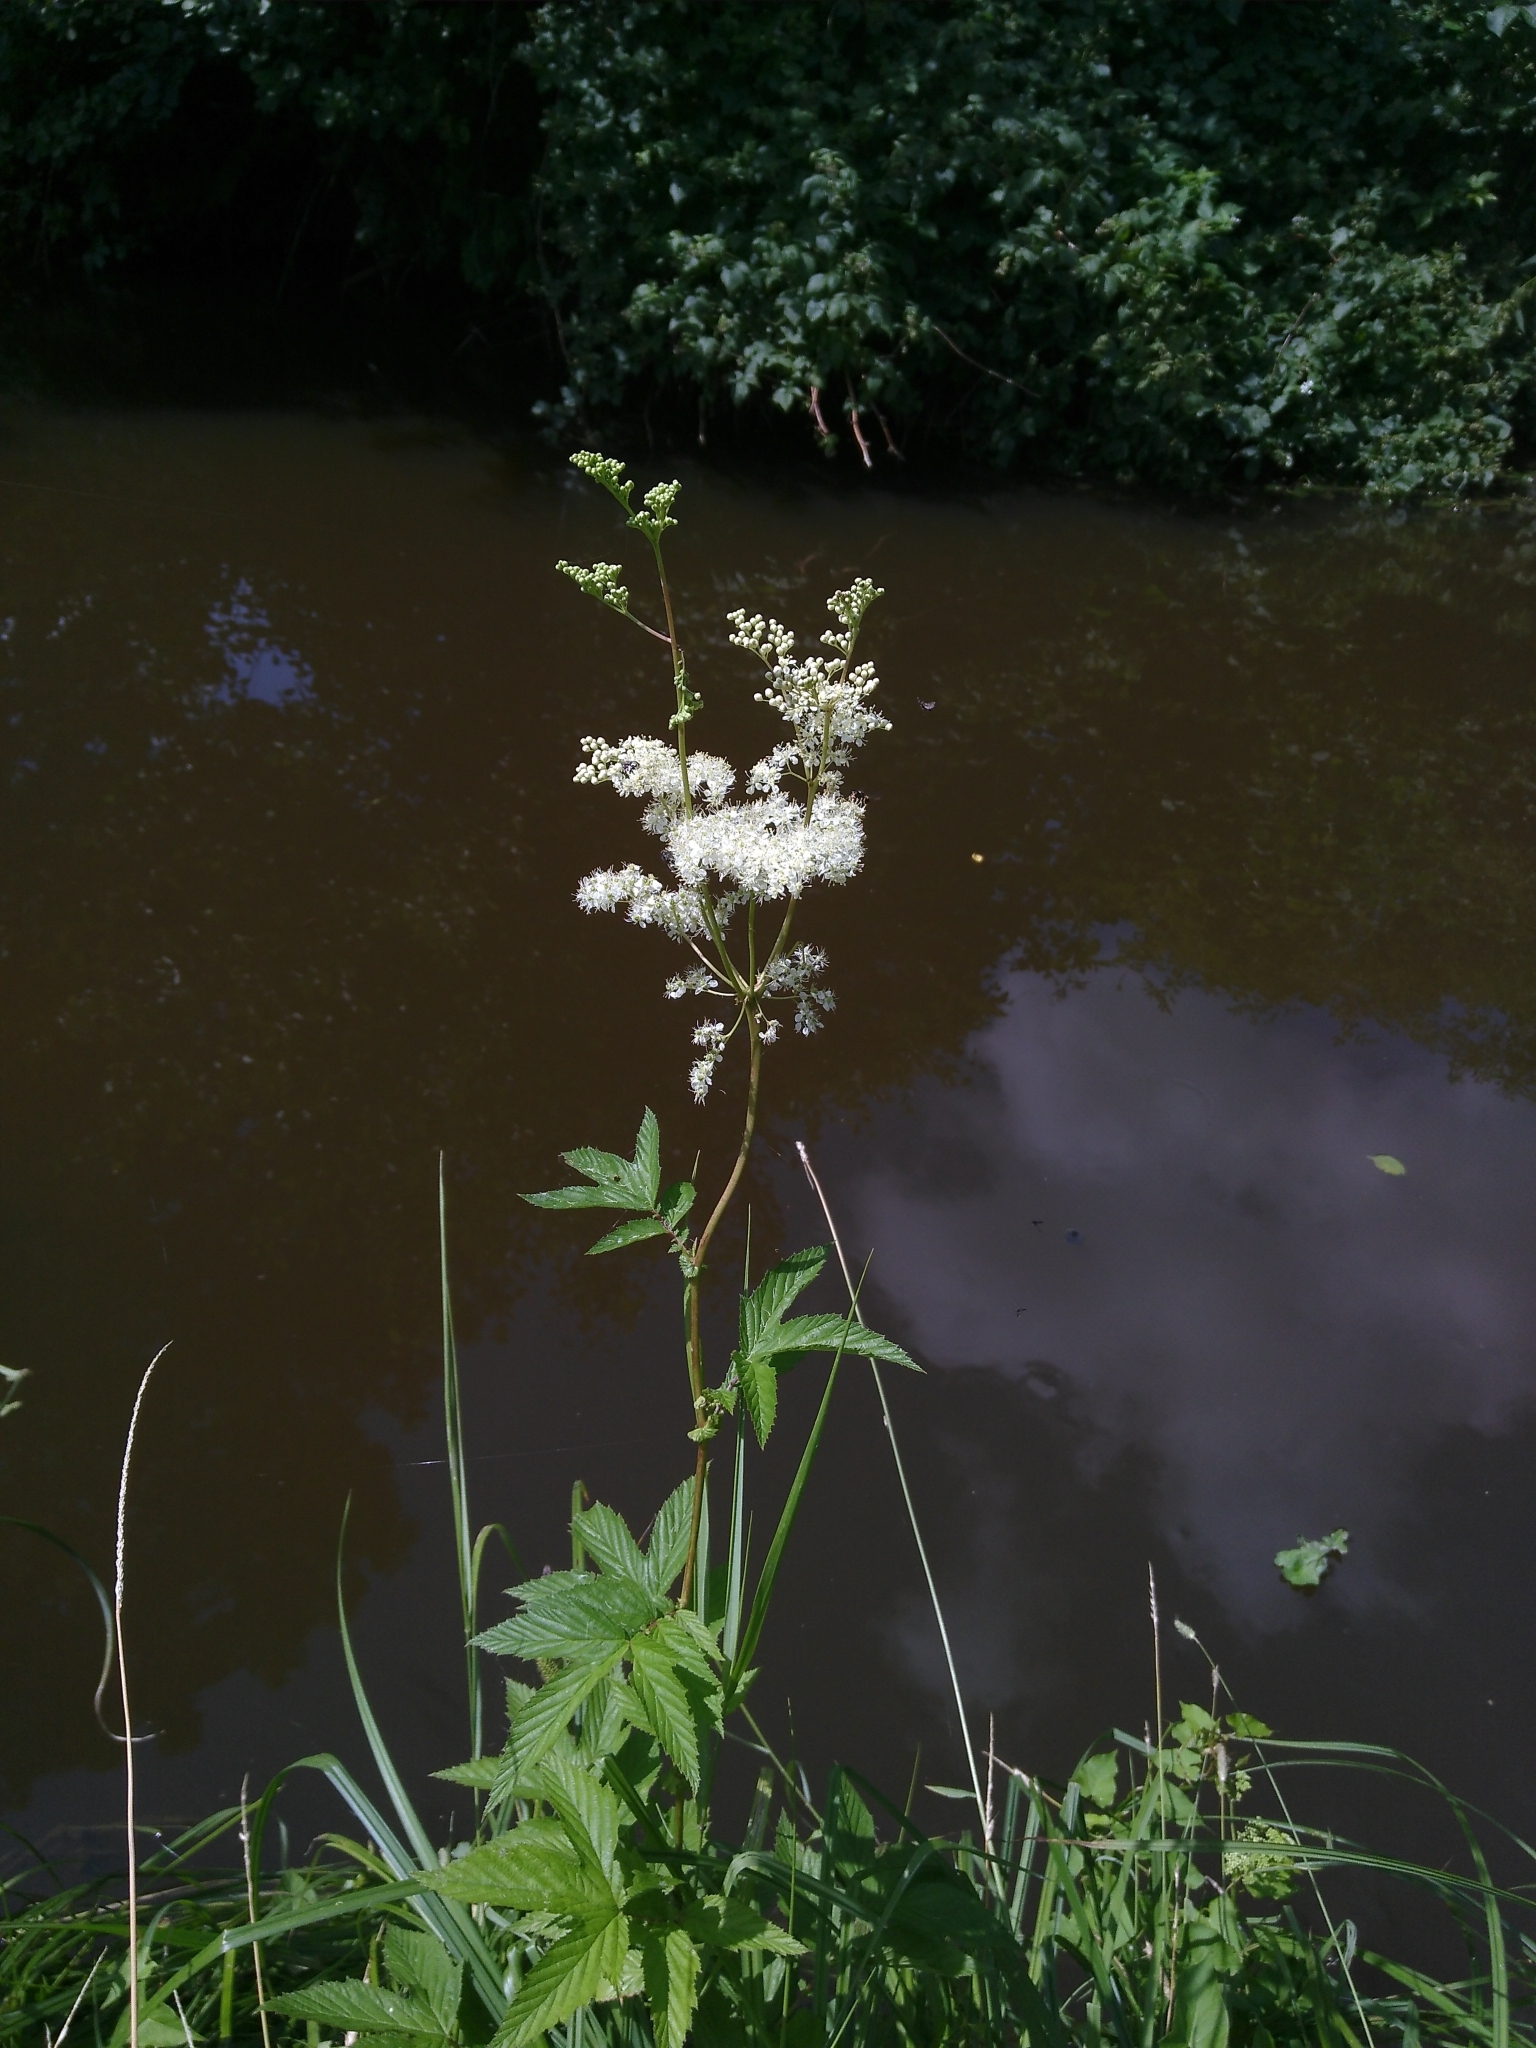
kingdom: Plantae
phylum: Tracheophyta
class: Magnoliopsida
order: Rosales
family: Rosaceae
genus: Filipendula
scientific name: Filipendula ulmaria
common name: Meadowsweet
